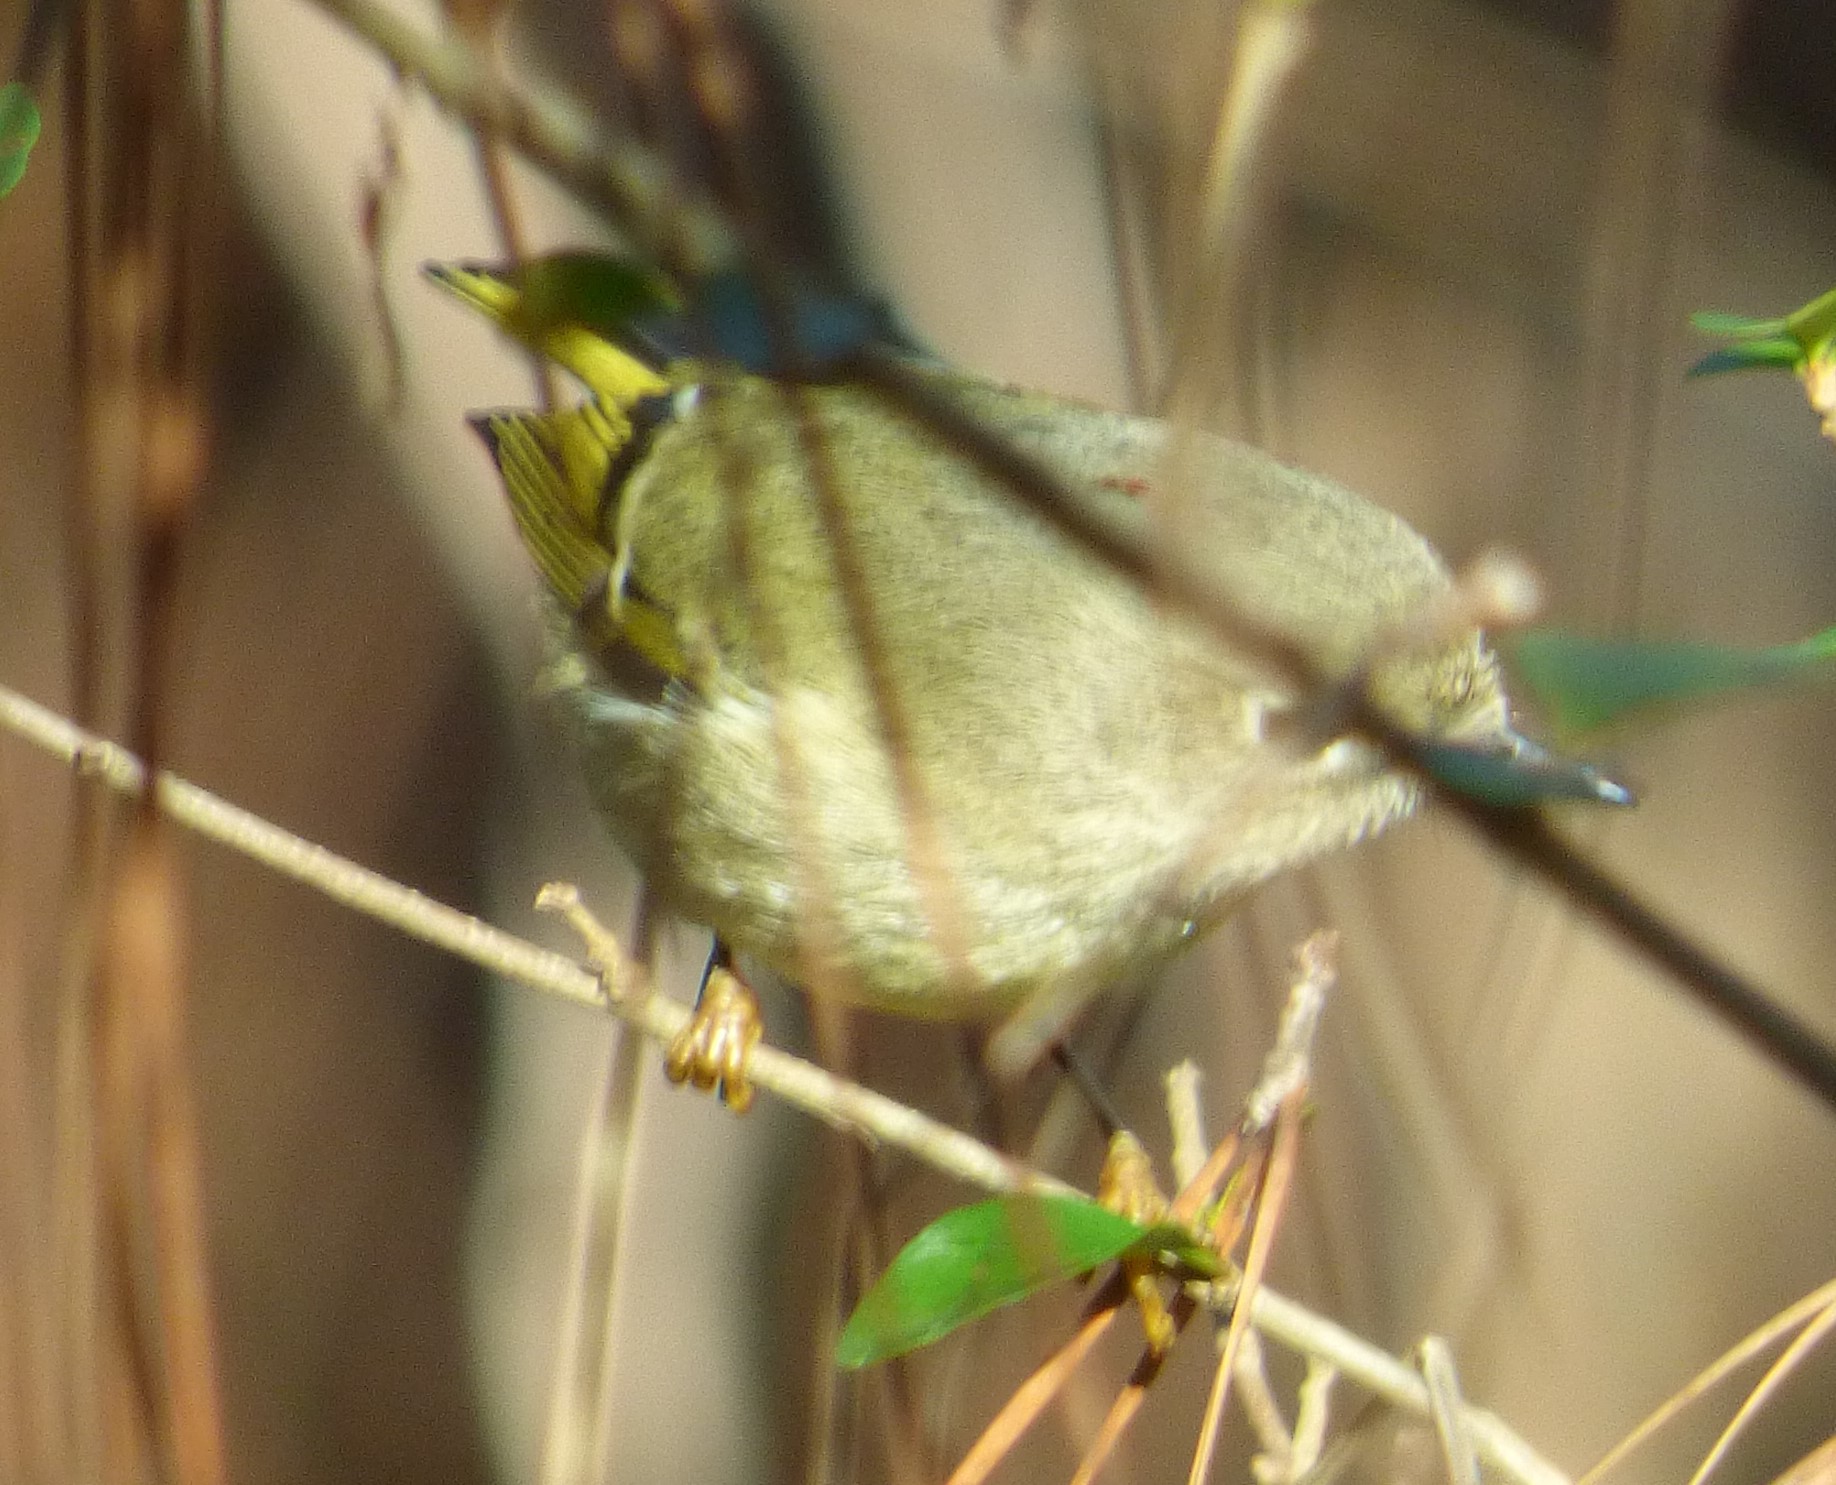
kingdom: Animalia
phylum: Chordata
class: Aves
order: Passeriformes
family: Regulidae
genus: Regulus
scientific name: Regulus calendula
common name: Ruby-crowned kinglet
